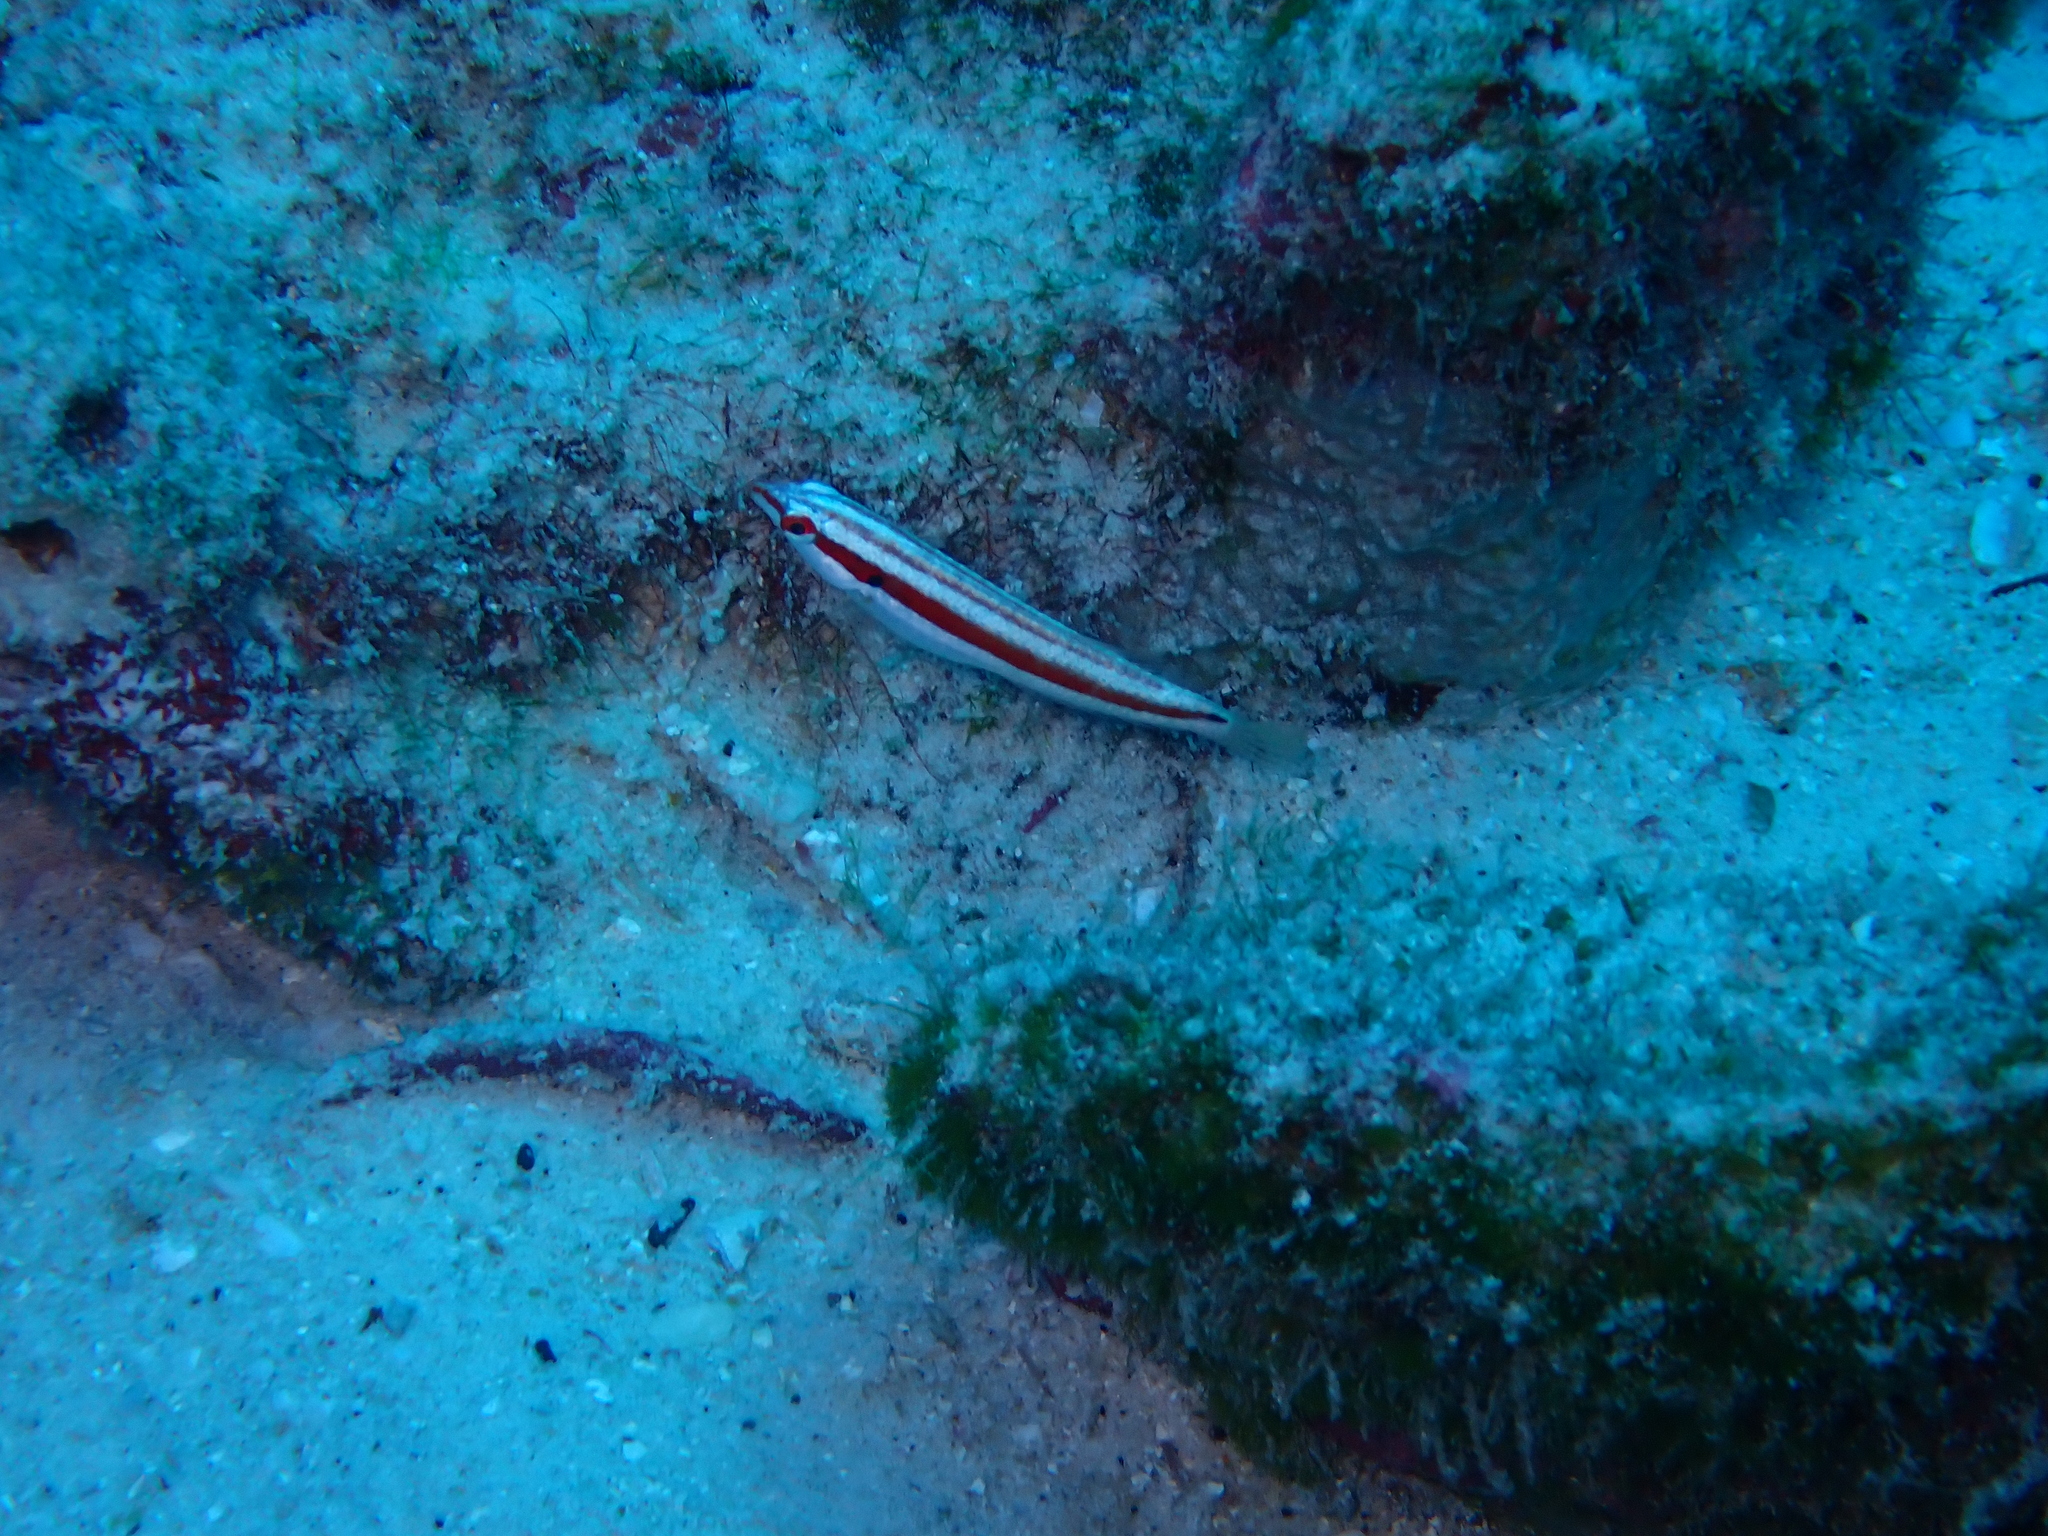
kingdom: Animalia
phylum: Chordata
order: Perciformes
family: Labridae
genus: Halichoeres
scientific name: Halichoeres salmofasciatus
